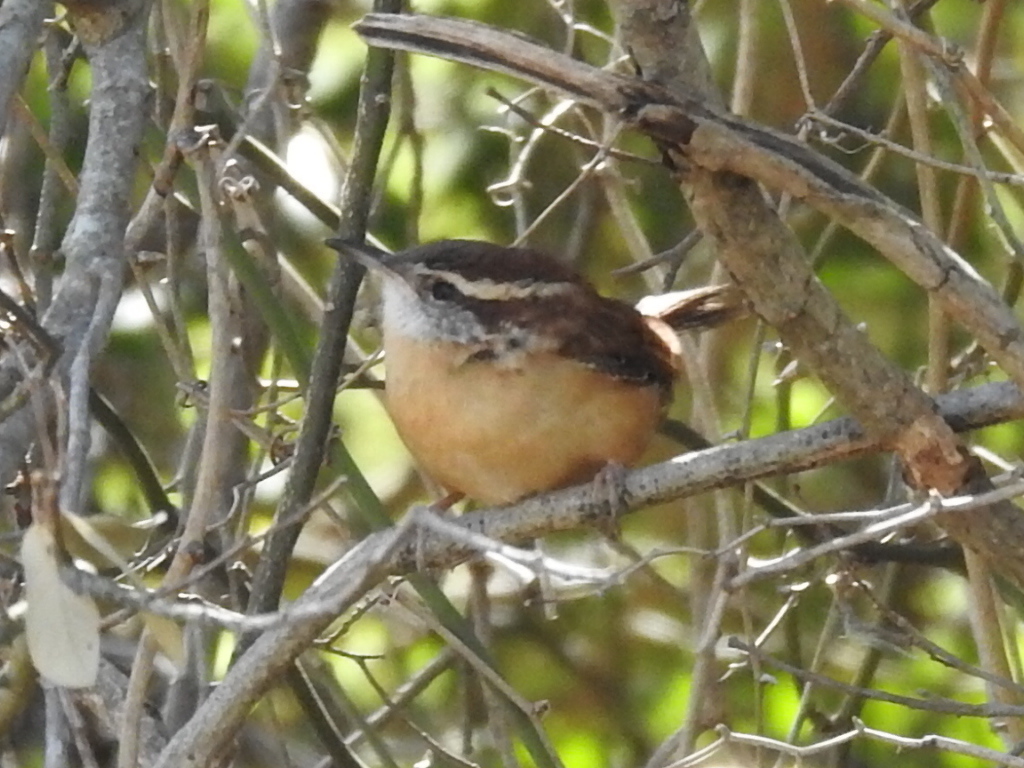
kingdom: Animalia
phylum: Chordata
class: Aves
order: Passeriformes
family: Troglodytidae
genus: Thryothorus
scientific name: Thryothorus ludovicianus
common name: Carolina wren
